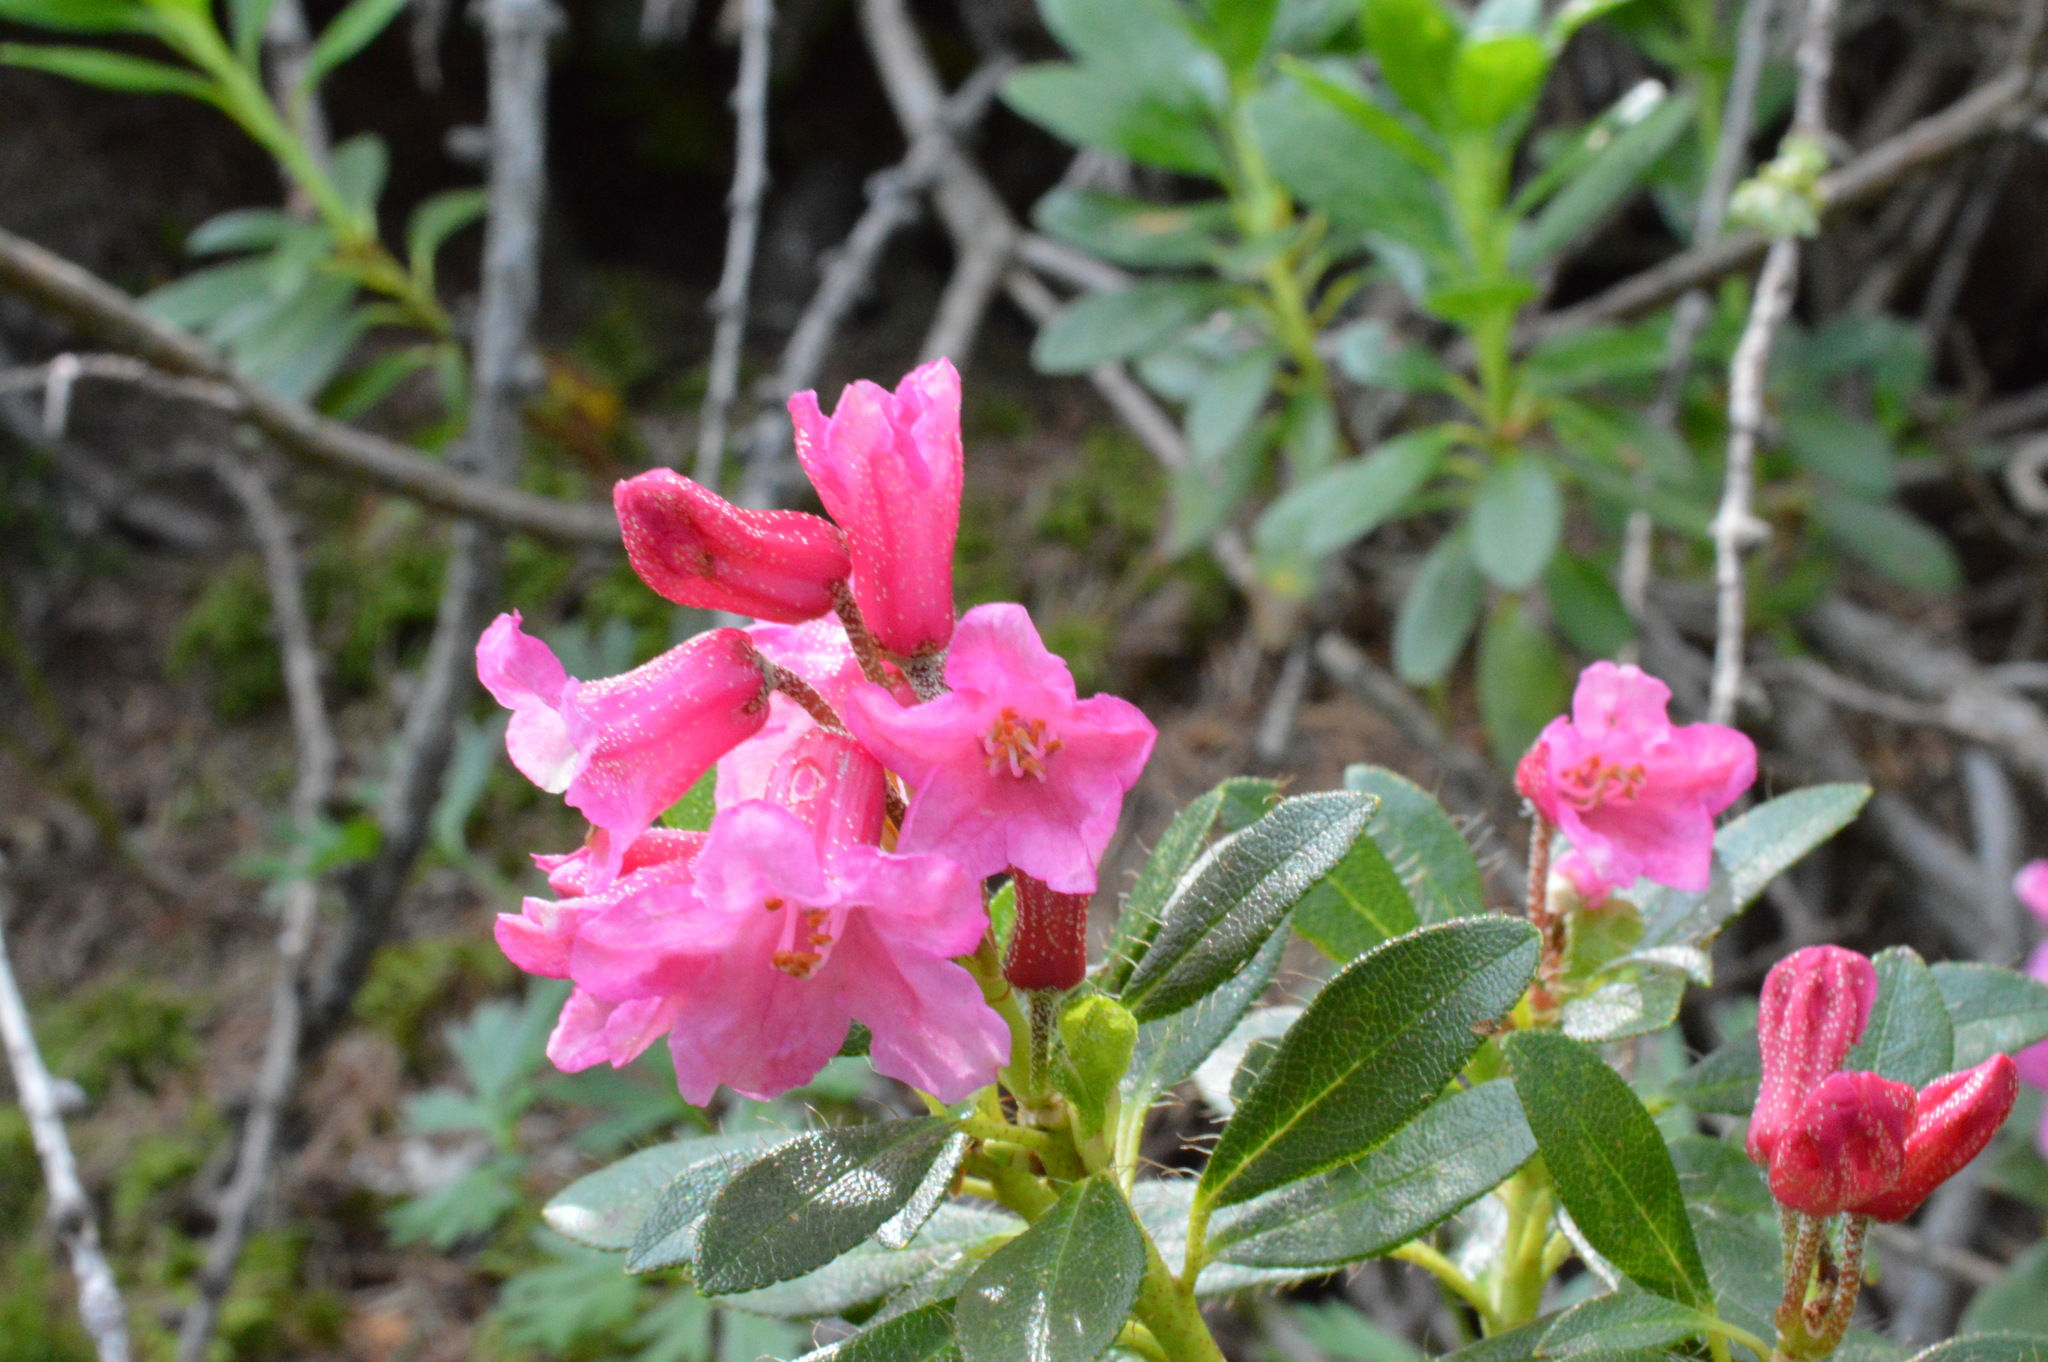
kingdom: Plantae
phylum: Tracheophyta
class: Magnoliopsida
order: Ericales
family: Ericaceae
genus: Rhododendron
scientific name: Rhododendron hirsutum
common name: Hairy alpenrose
